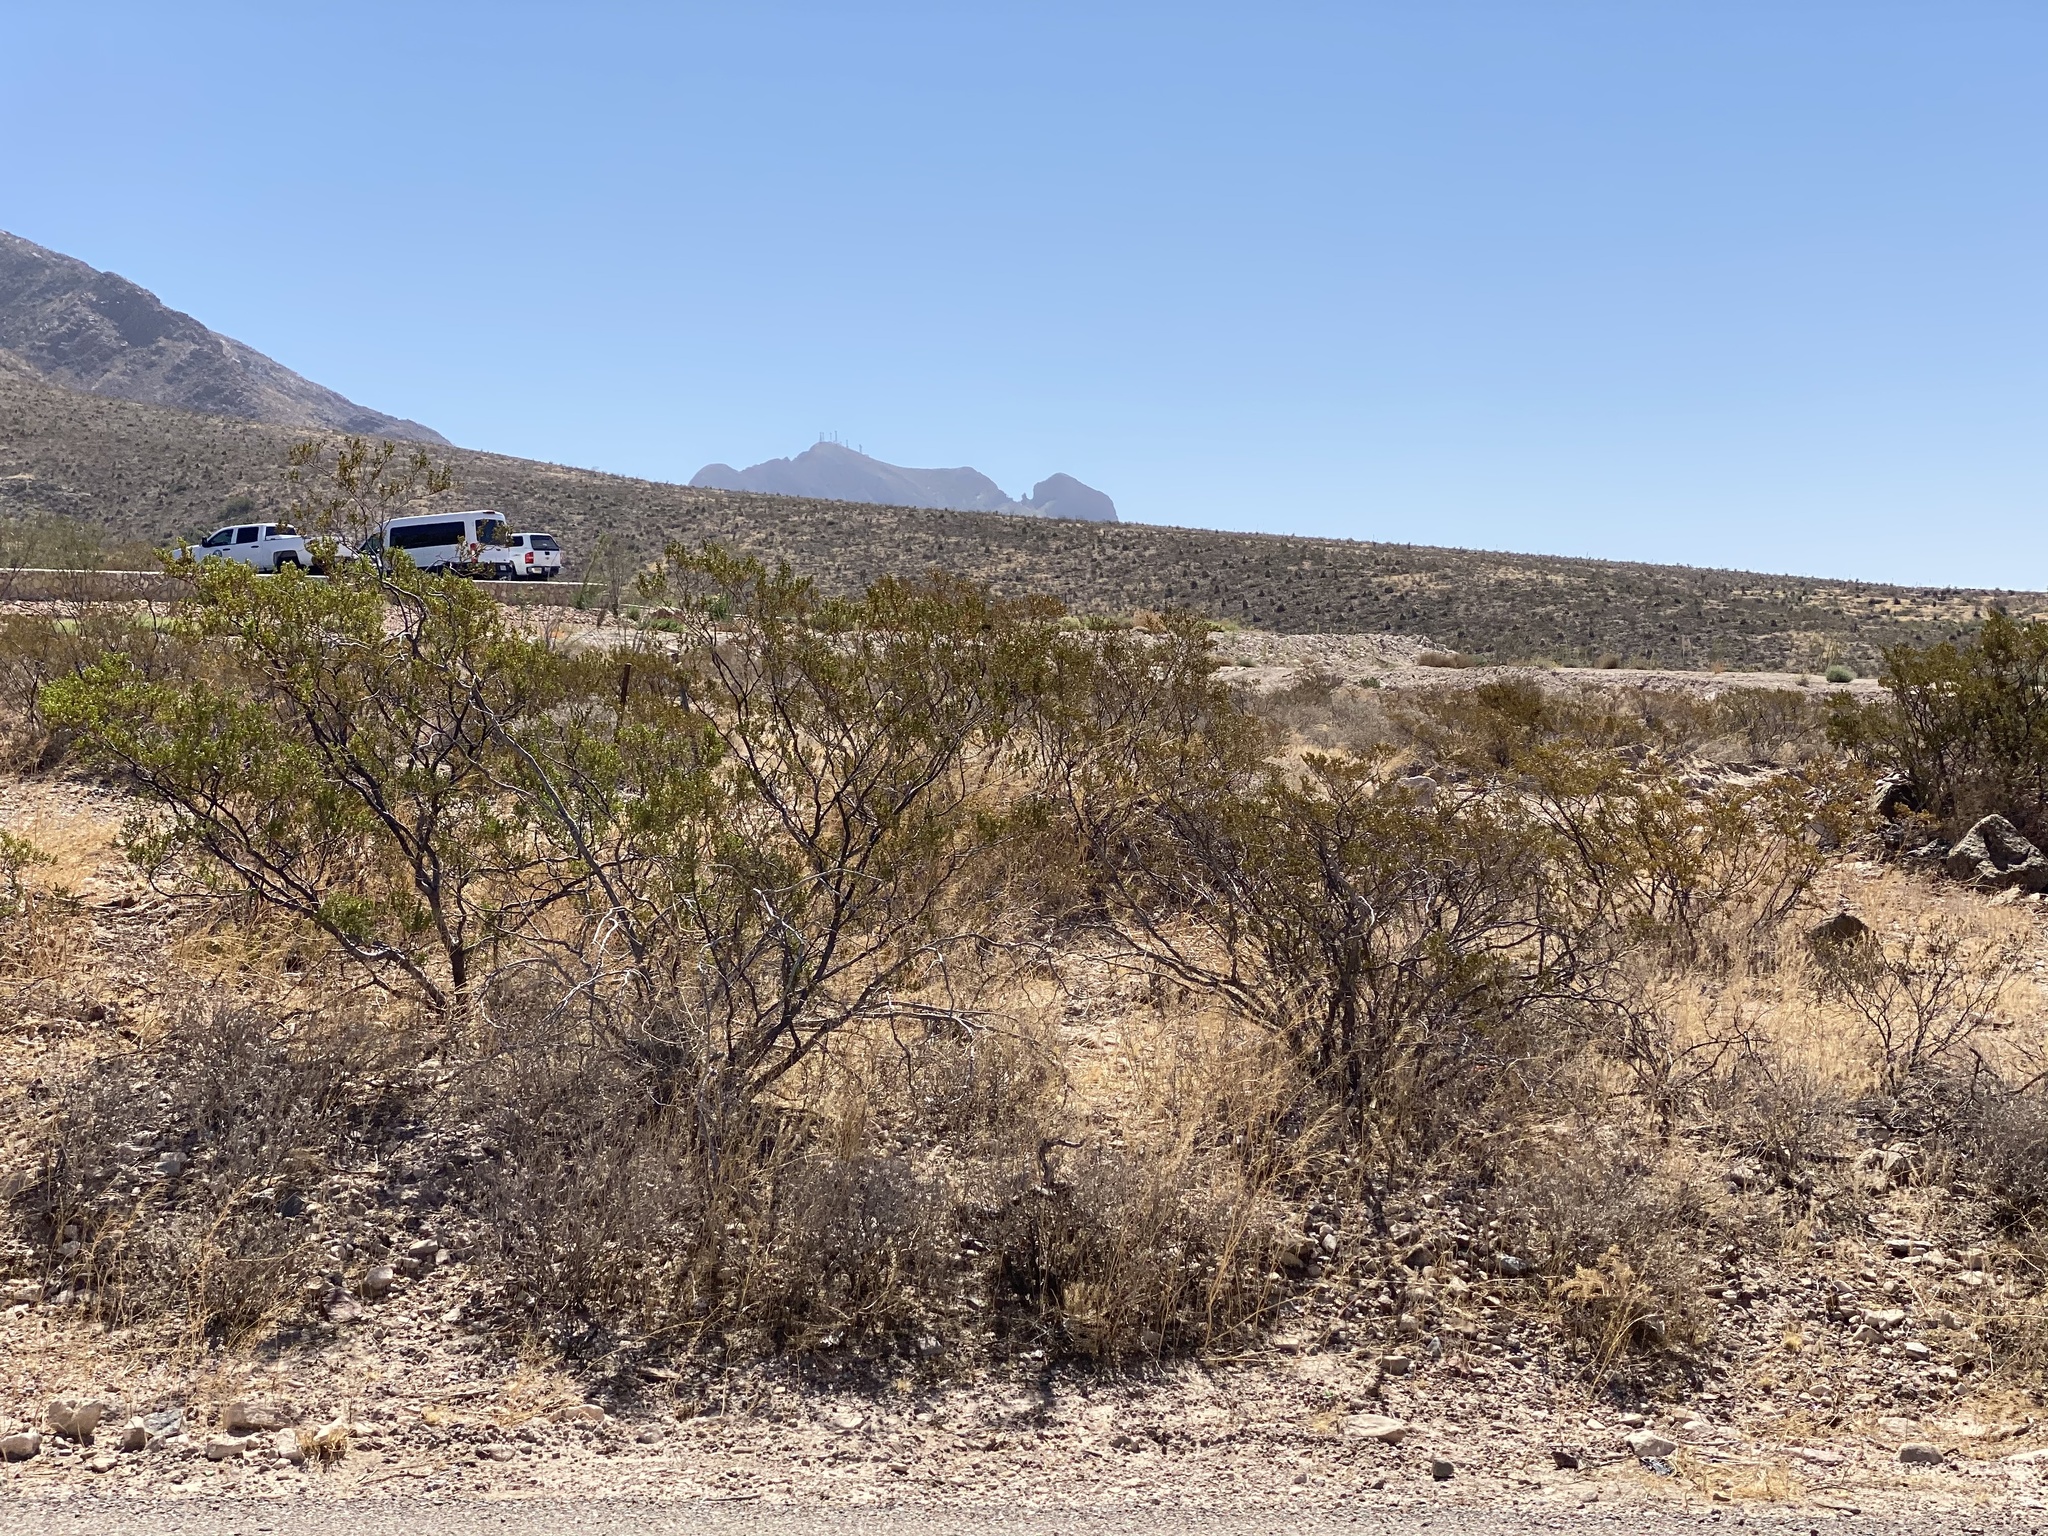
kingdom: Plantae
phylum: Tracheophyta
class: Magnoliopsida
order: Zygophyllales
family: Zygophyllaceae
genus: Larrea
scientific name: Larrea tridentata
